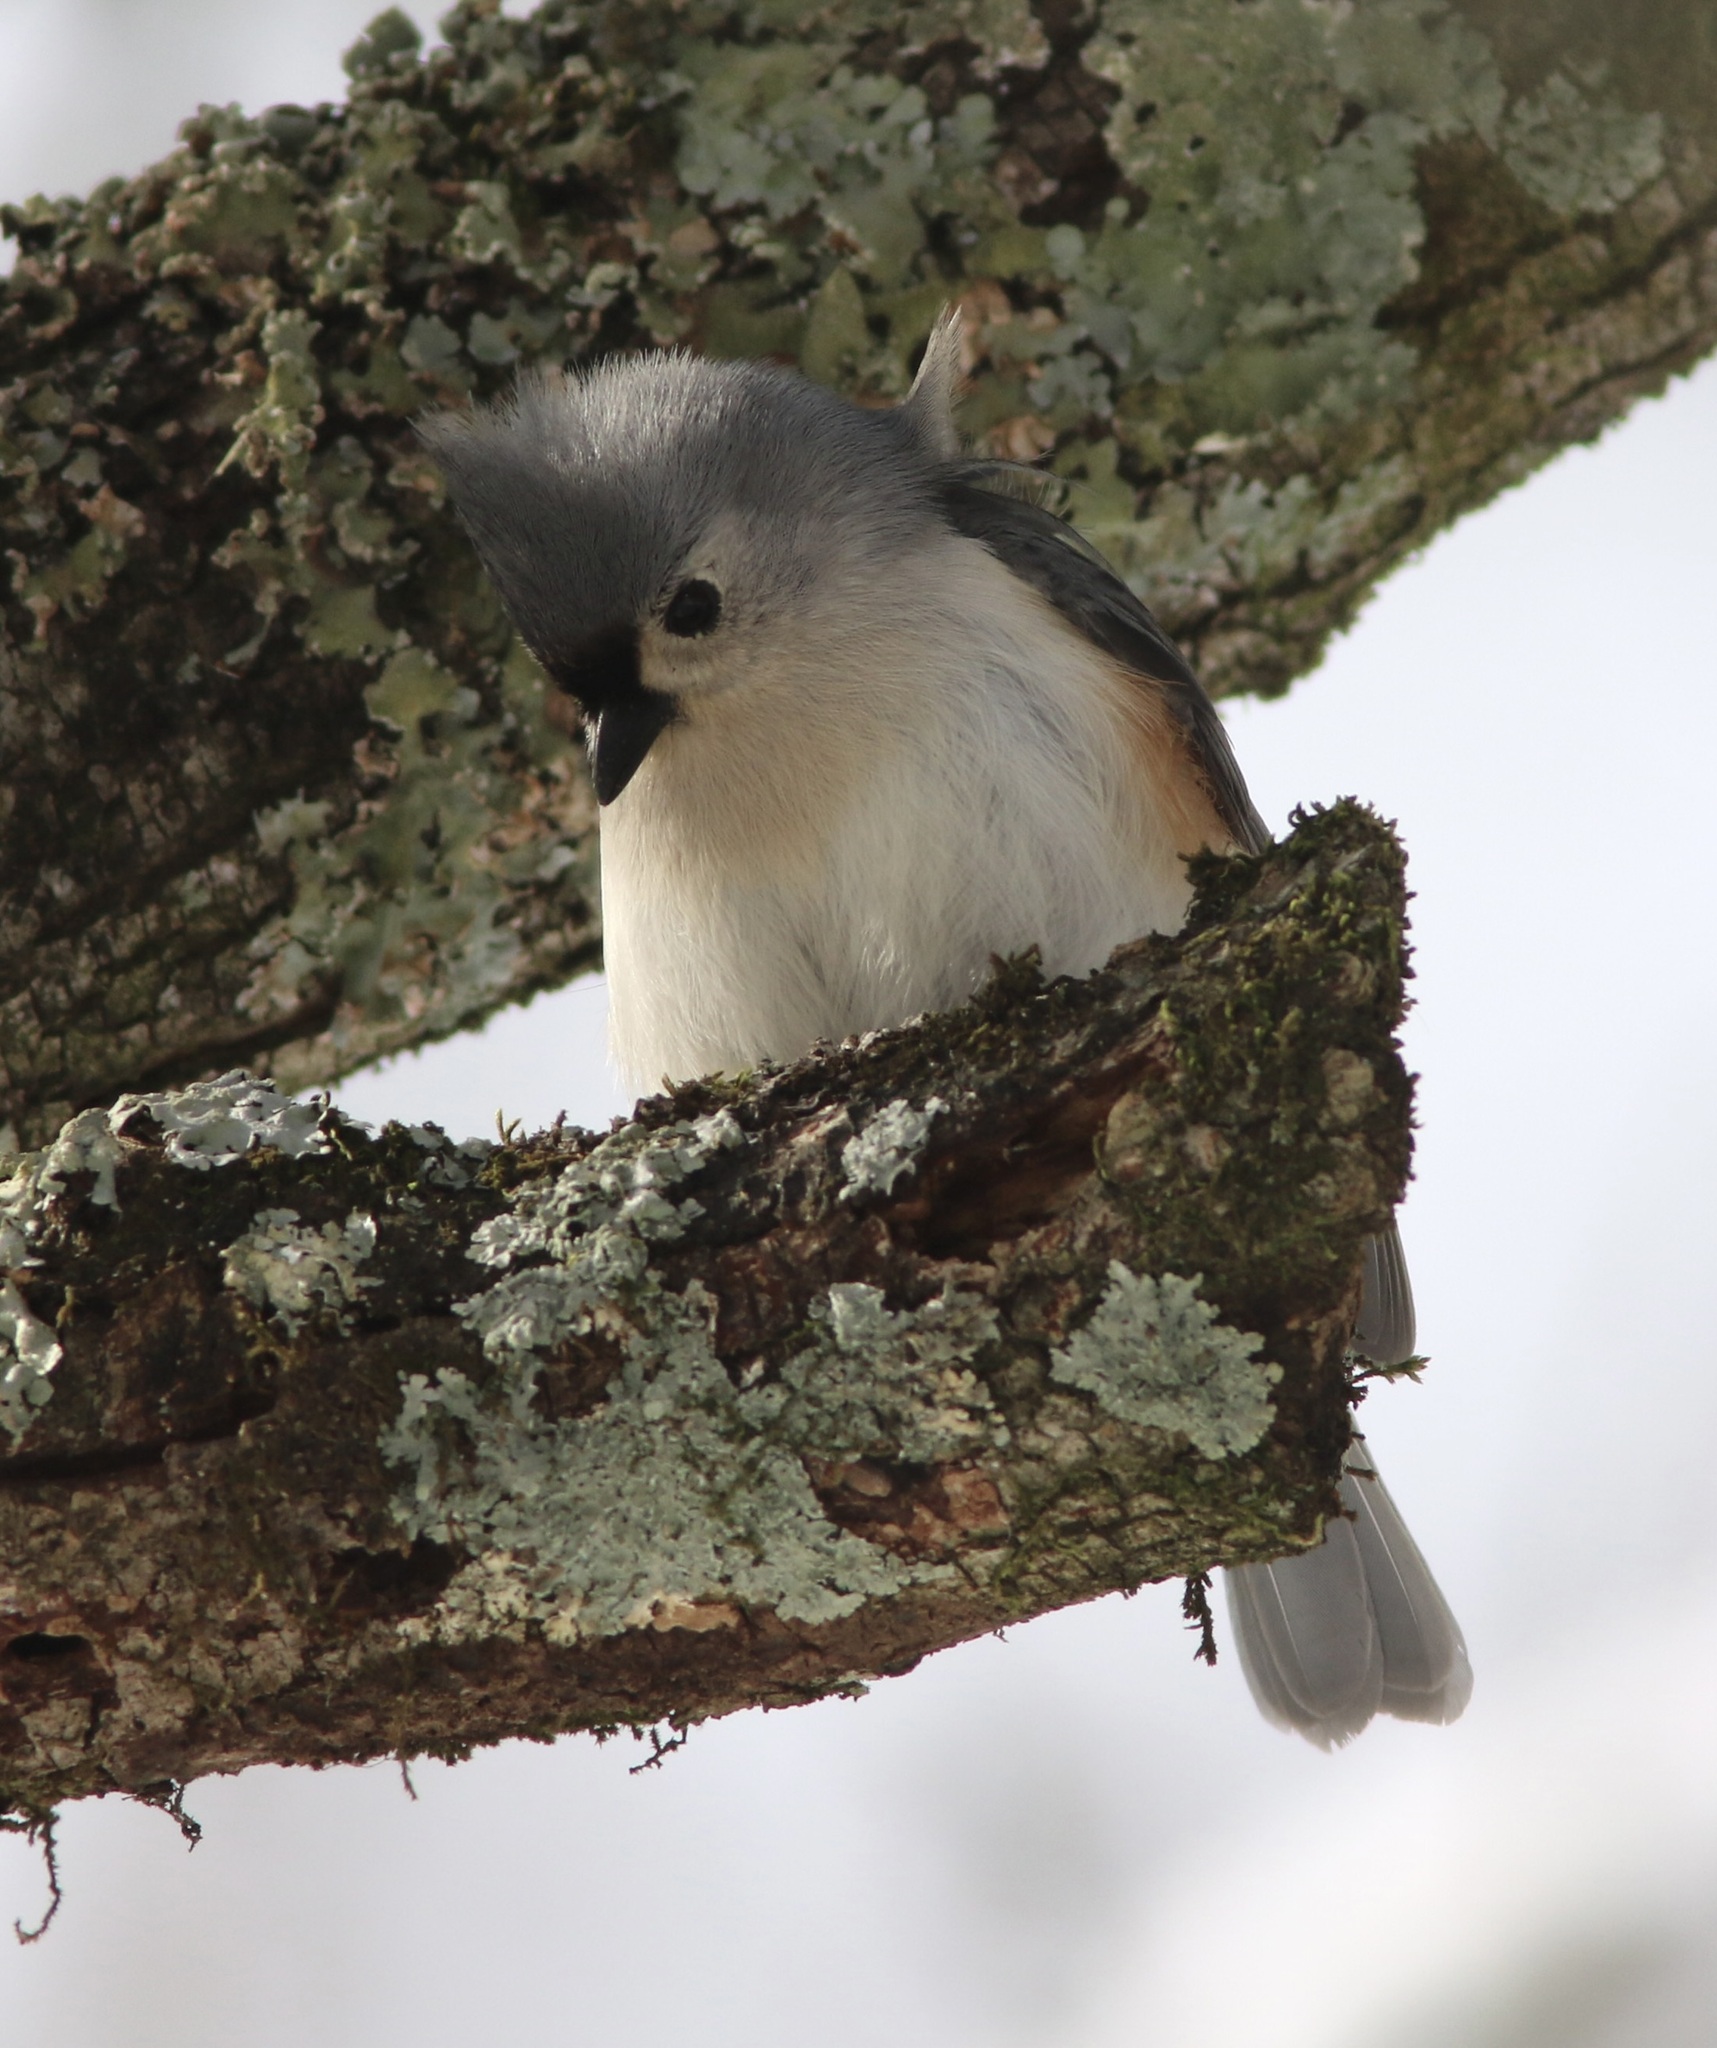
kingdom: Animalia
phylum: Chordata
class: Aves
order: Passeriformes
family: Paridae
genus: Baeolophus
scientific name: Baeolophus bicolor
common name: Tufted titmouse
